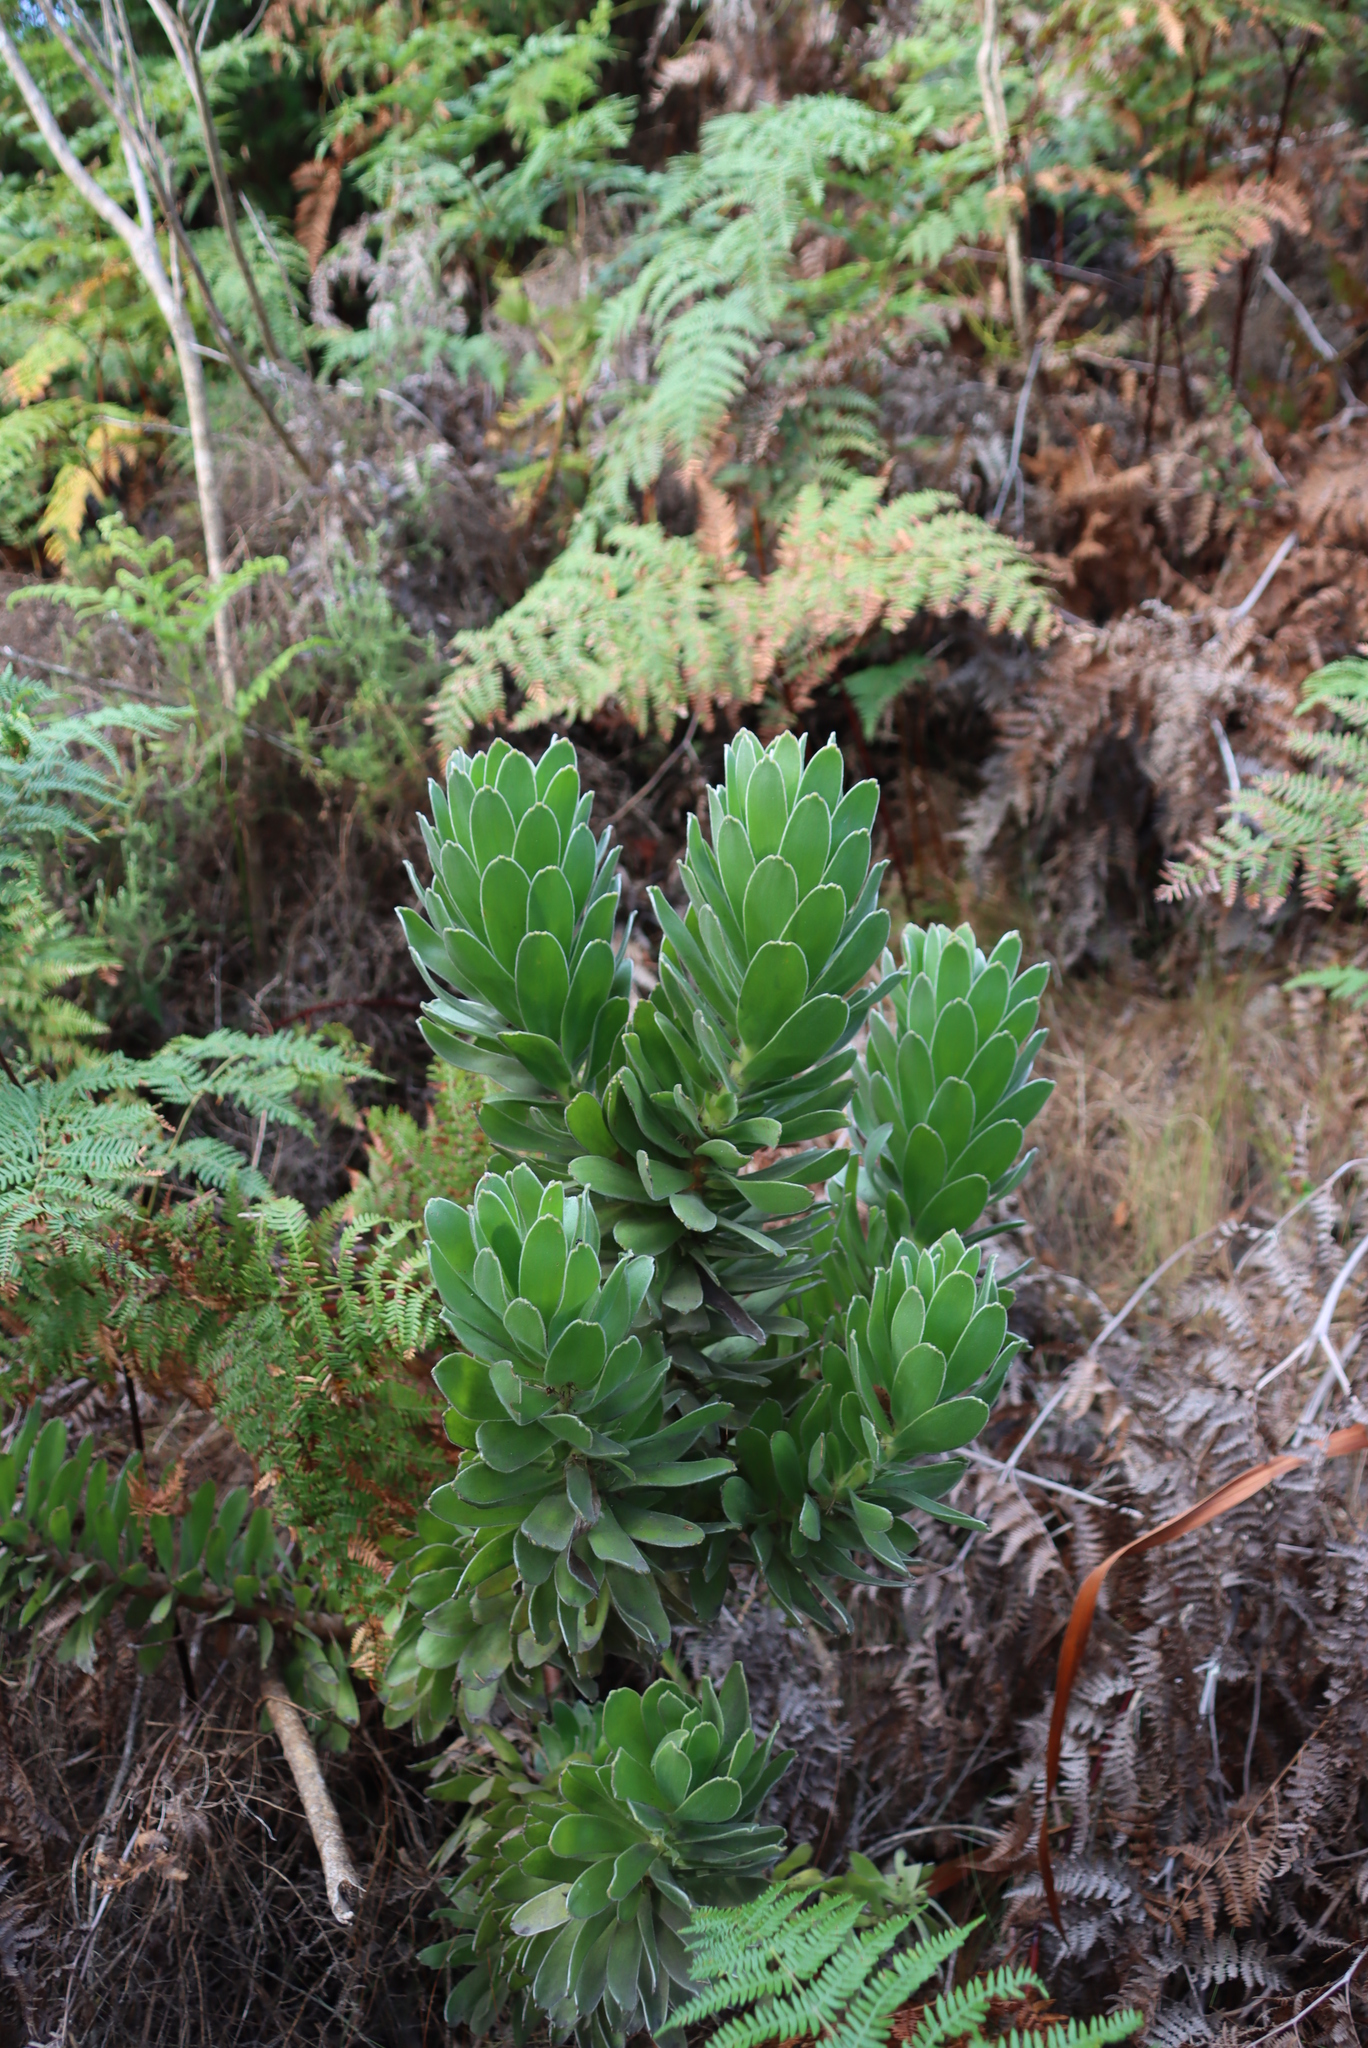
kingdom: Plantae
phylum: Tracheophyta
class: Magnoliopsida
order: Proteales
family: Proteaceae
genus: Mimetes
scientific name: Mimetes fimbriifolius
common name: Fringed bottlebrush
